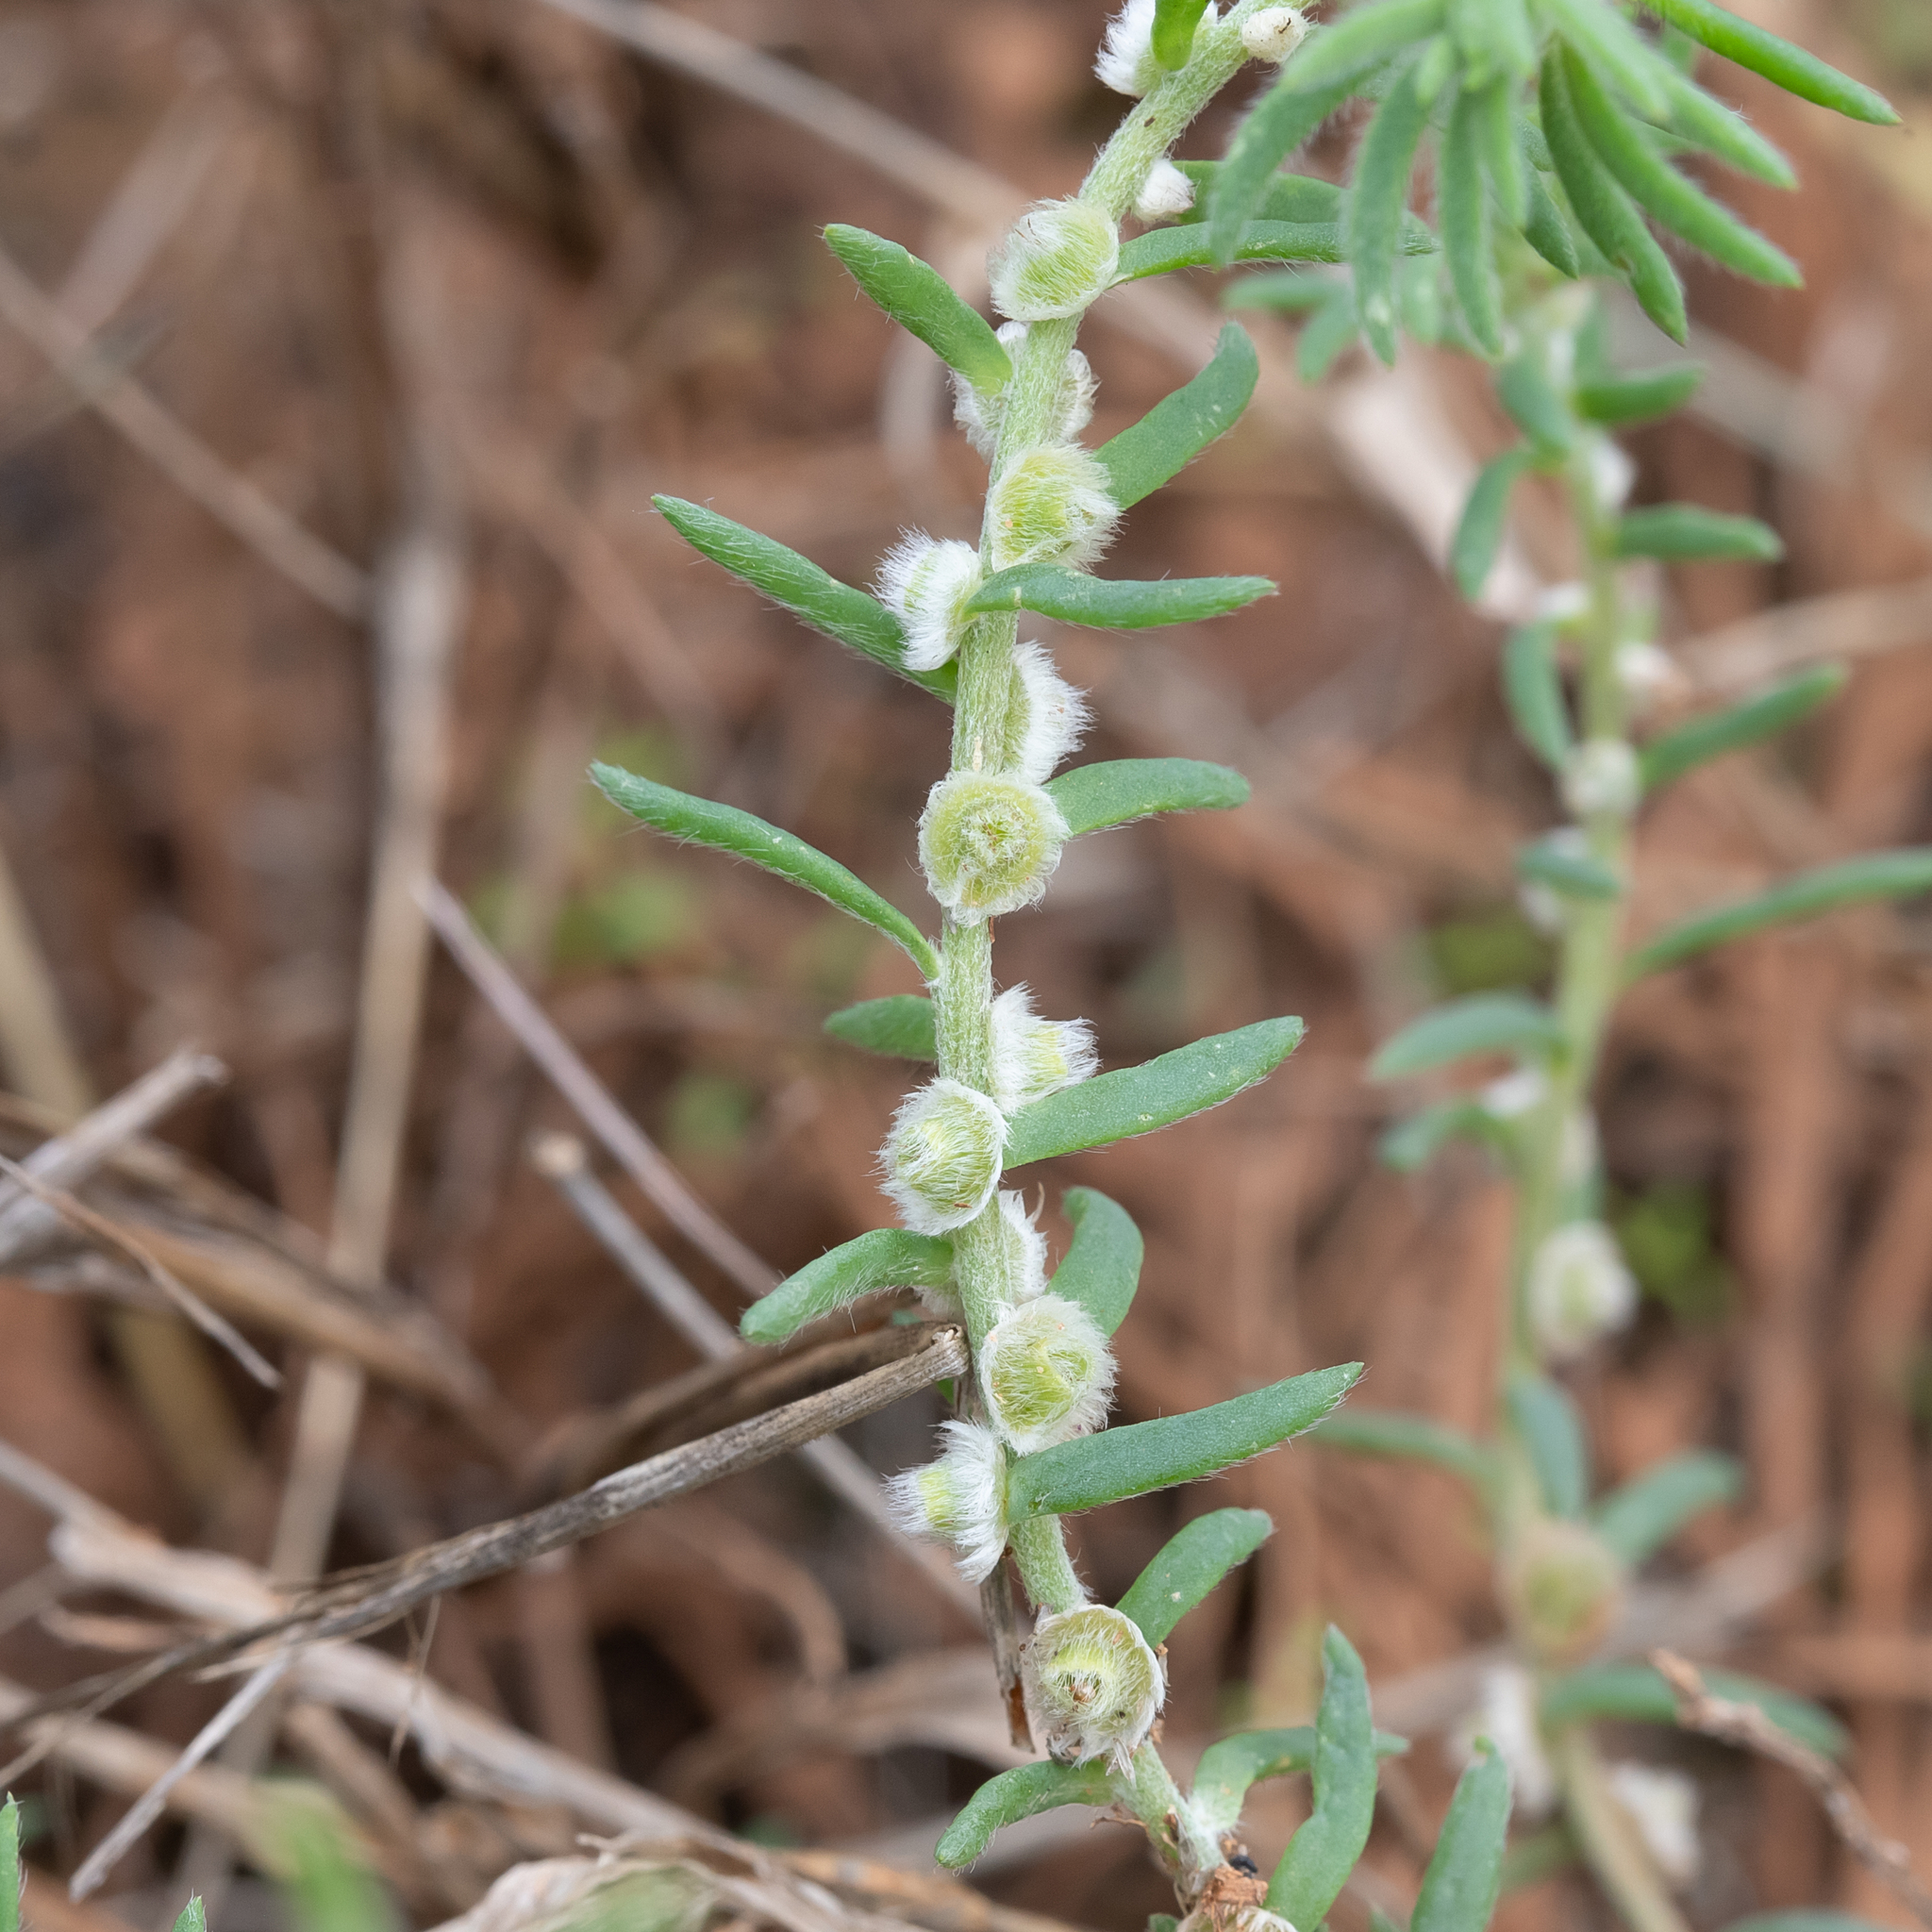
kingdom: Plantae
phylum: Tracheophyta
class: Magnoliopsida
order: Caryophyllales
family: Amaranthaceae
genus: Maireana
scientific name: Maireana coronata
